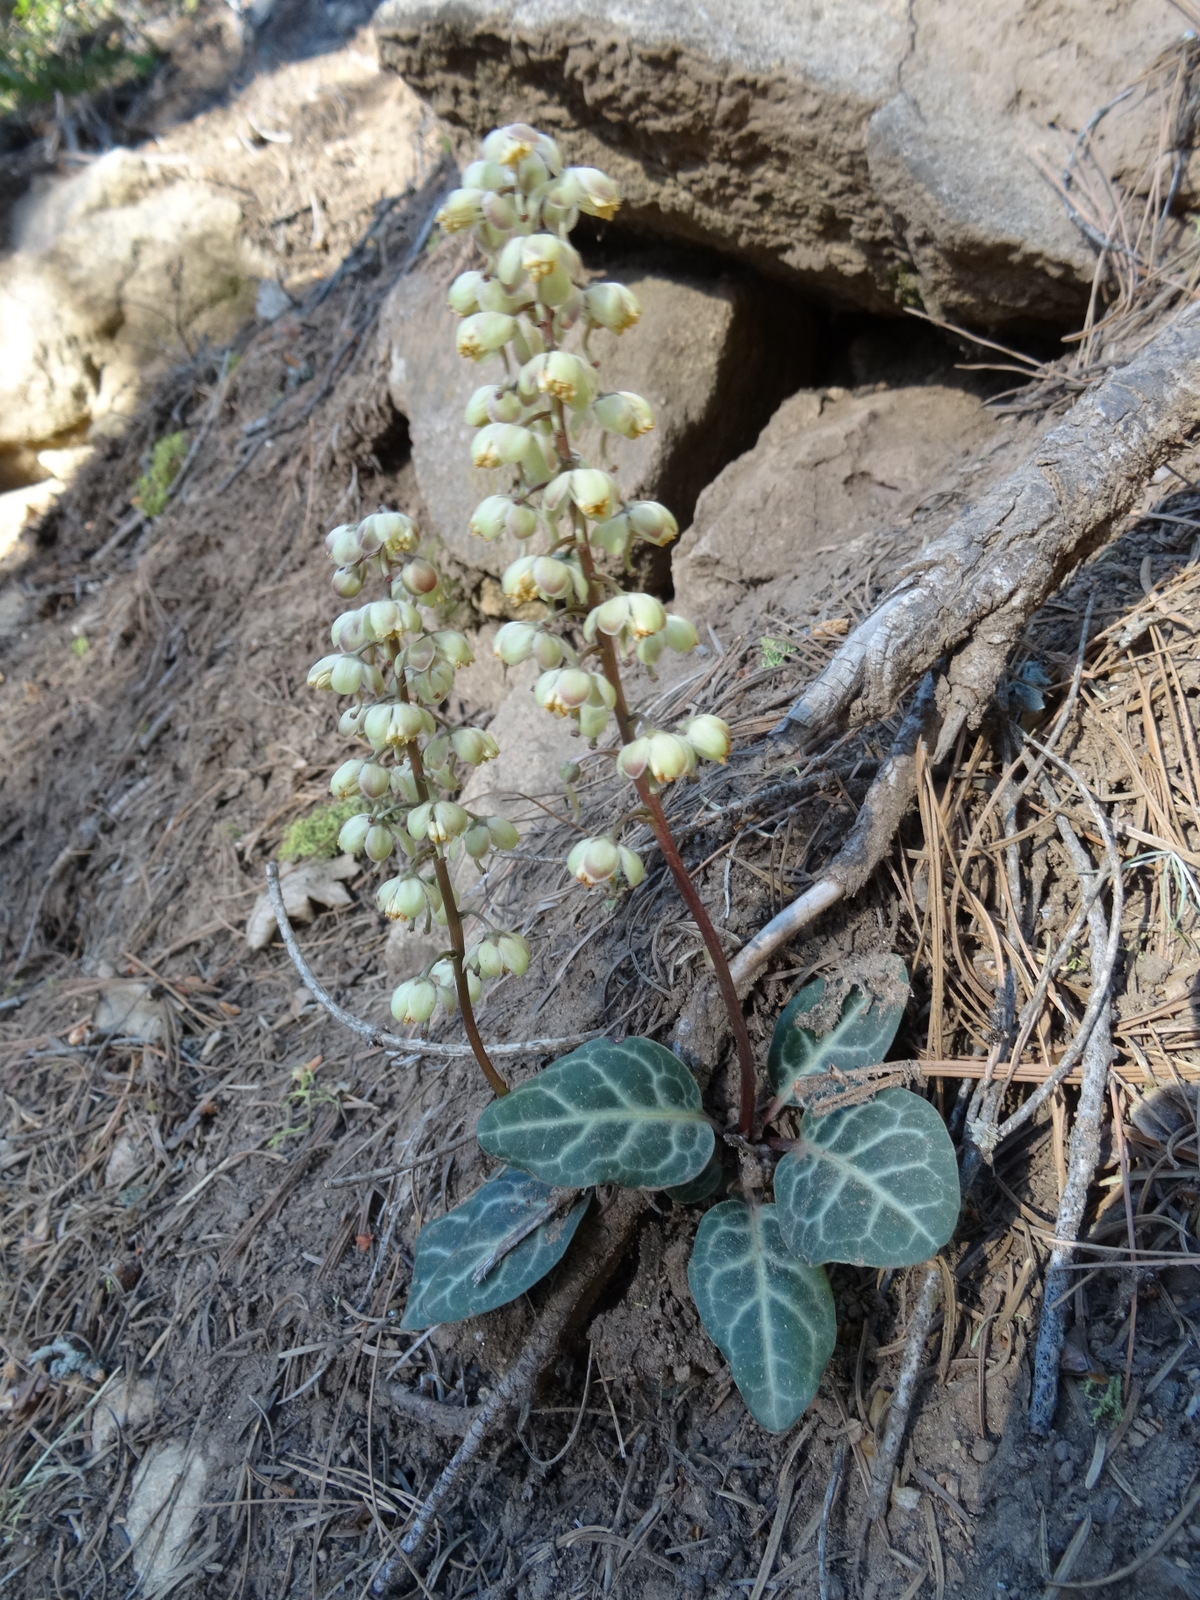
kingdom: Plantae
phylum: Tracheophyta
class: Magnoliopsida
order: Ericales
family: Ericaceae
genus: Pyrola
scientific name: Pyrola picta
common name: White-vein wintergreen
